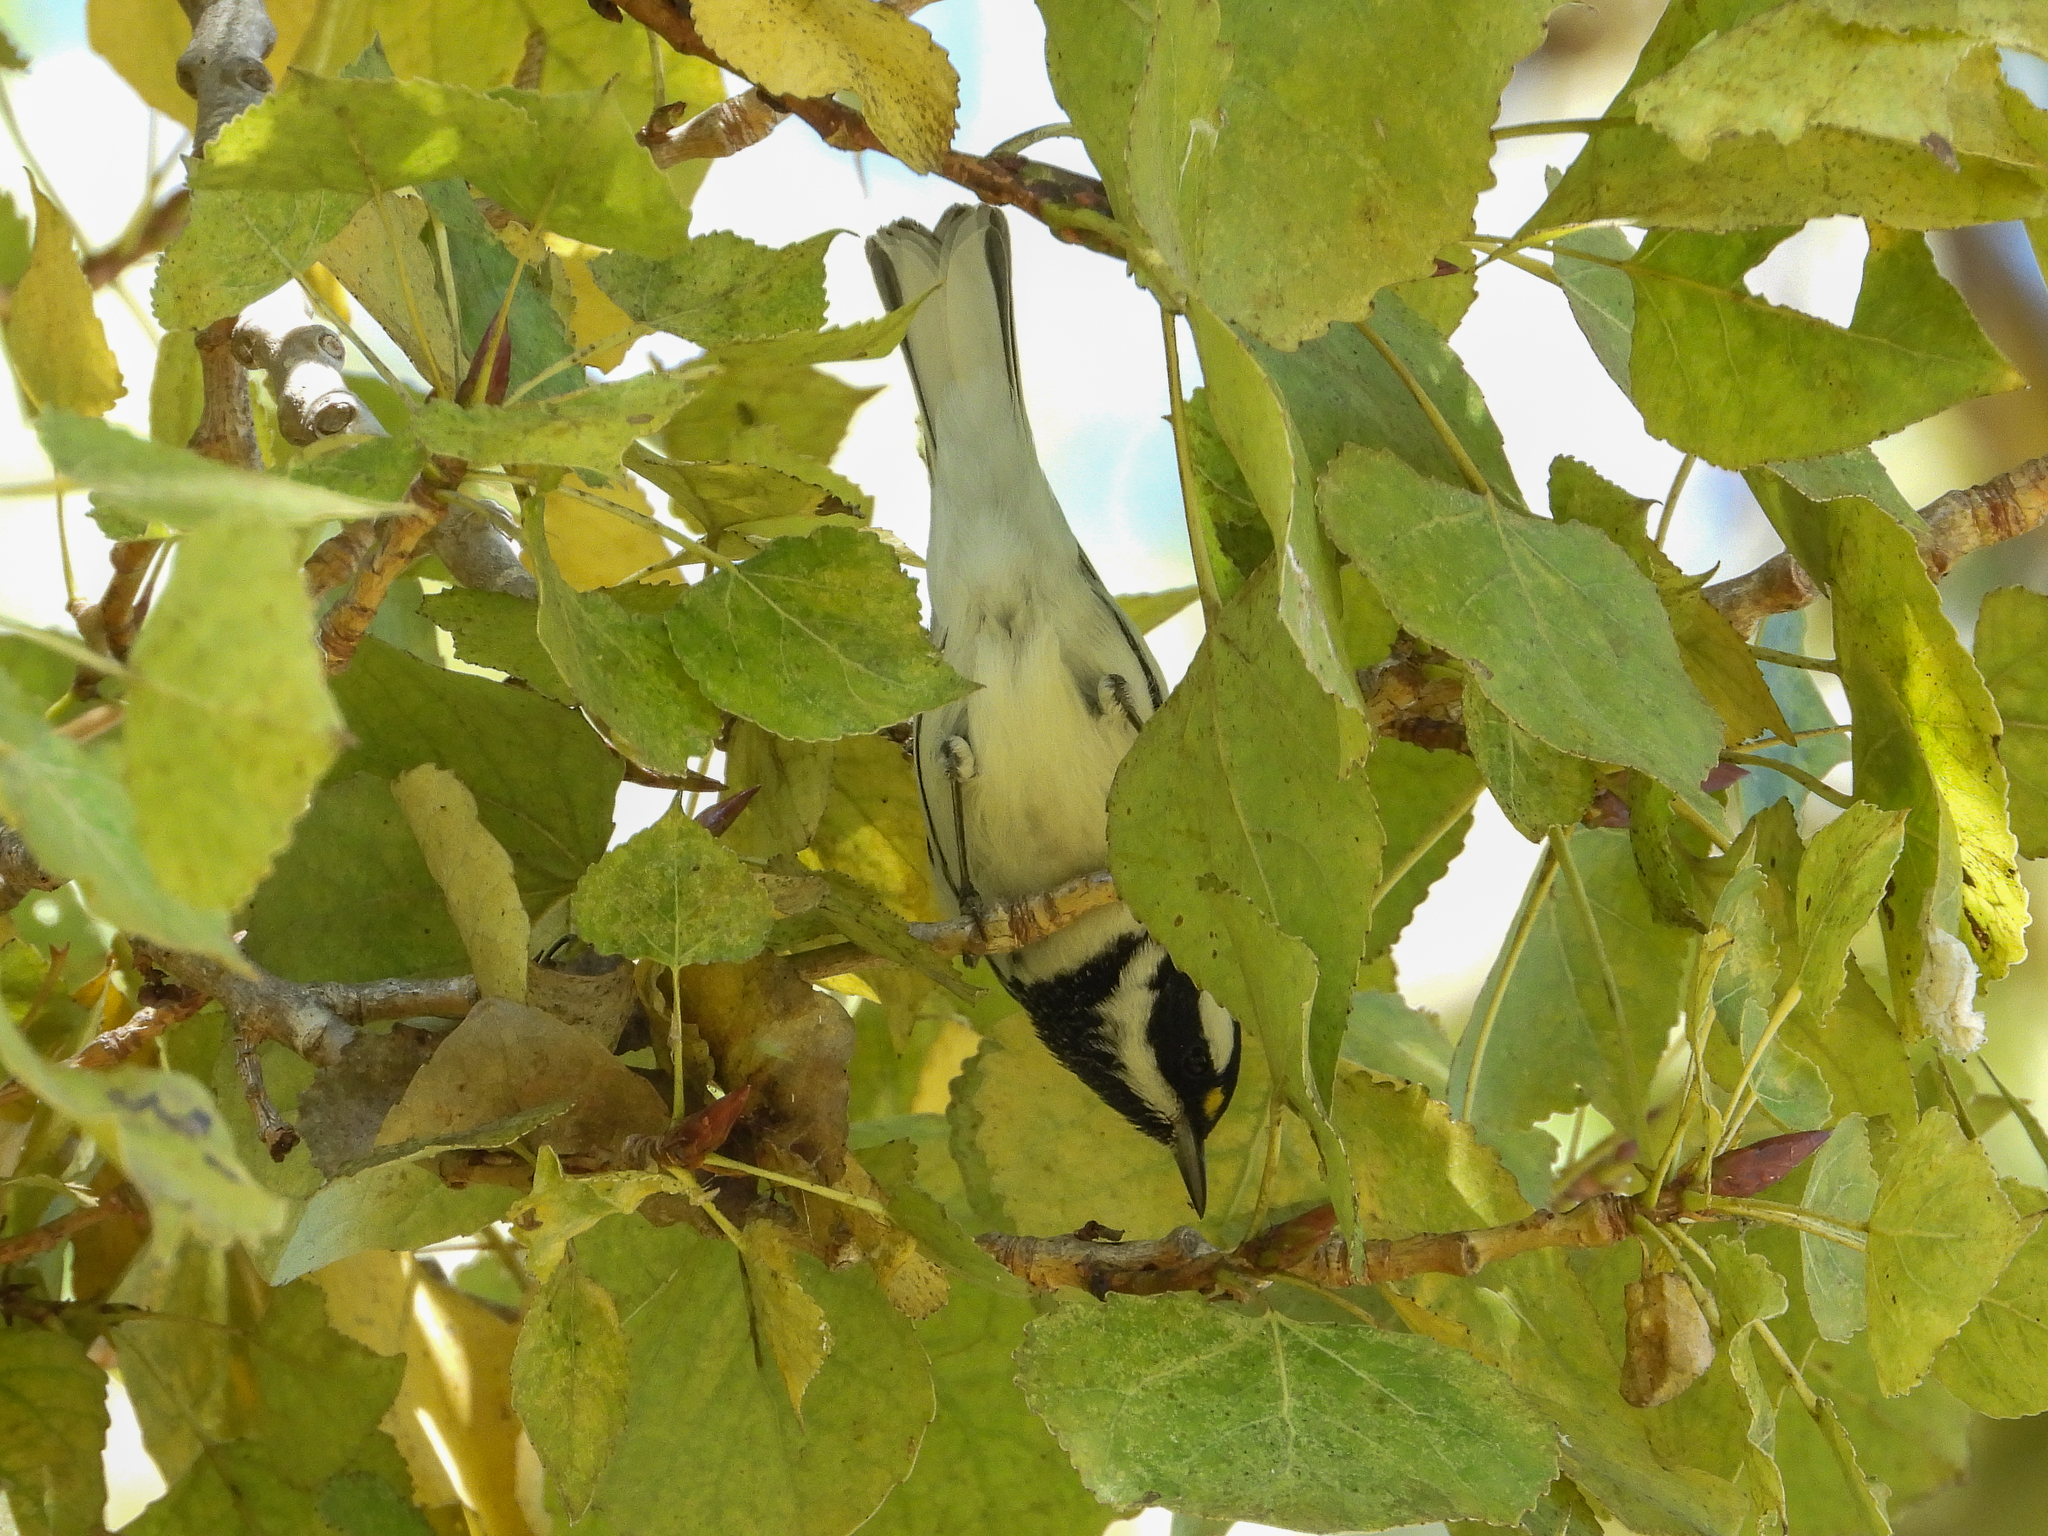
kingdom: Animalia
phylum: Chordata
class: Aves
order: Passeriformes
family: Parulidae
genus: Setophaga
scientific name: Setophaga nigrescens
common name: Black-throated gray warbler
